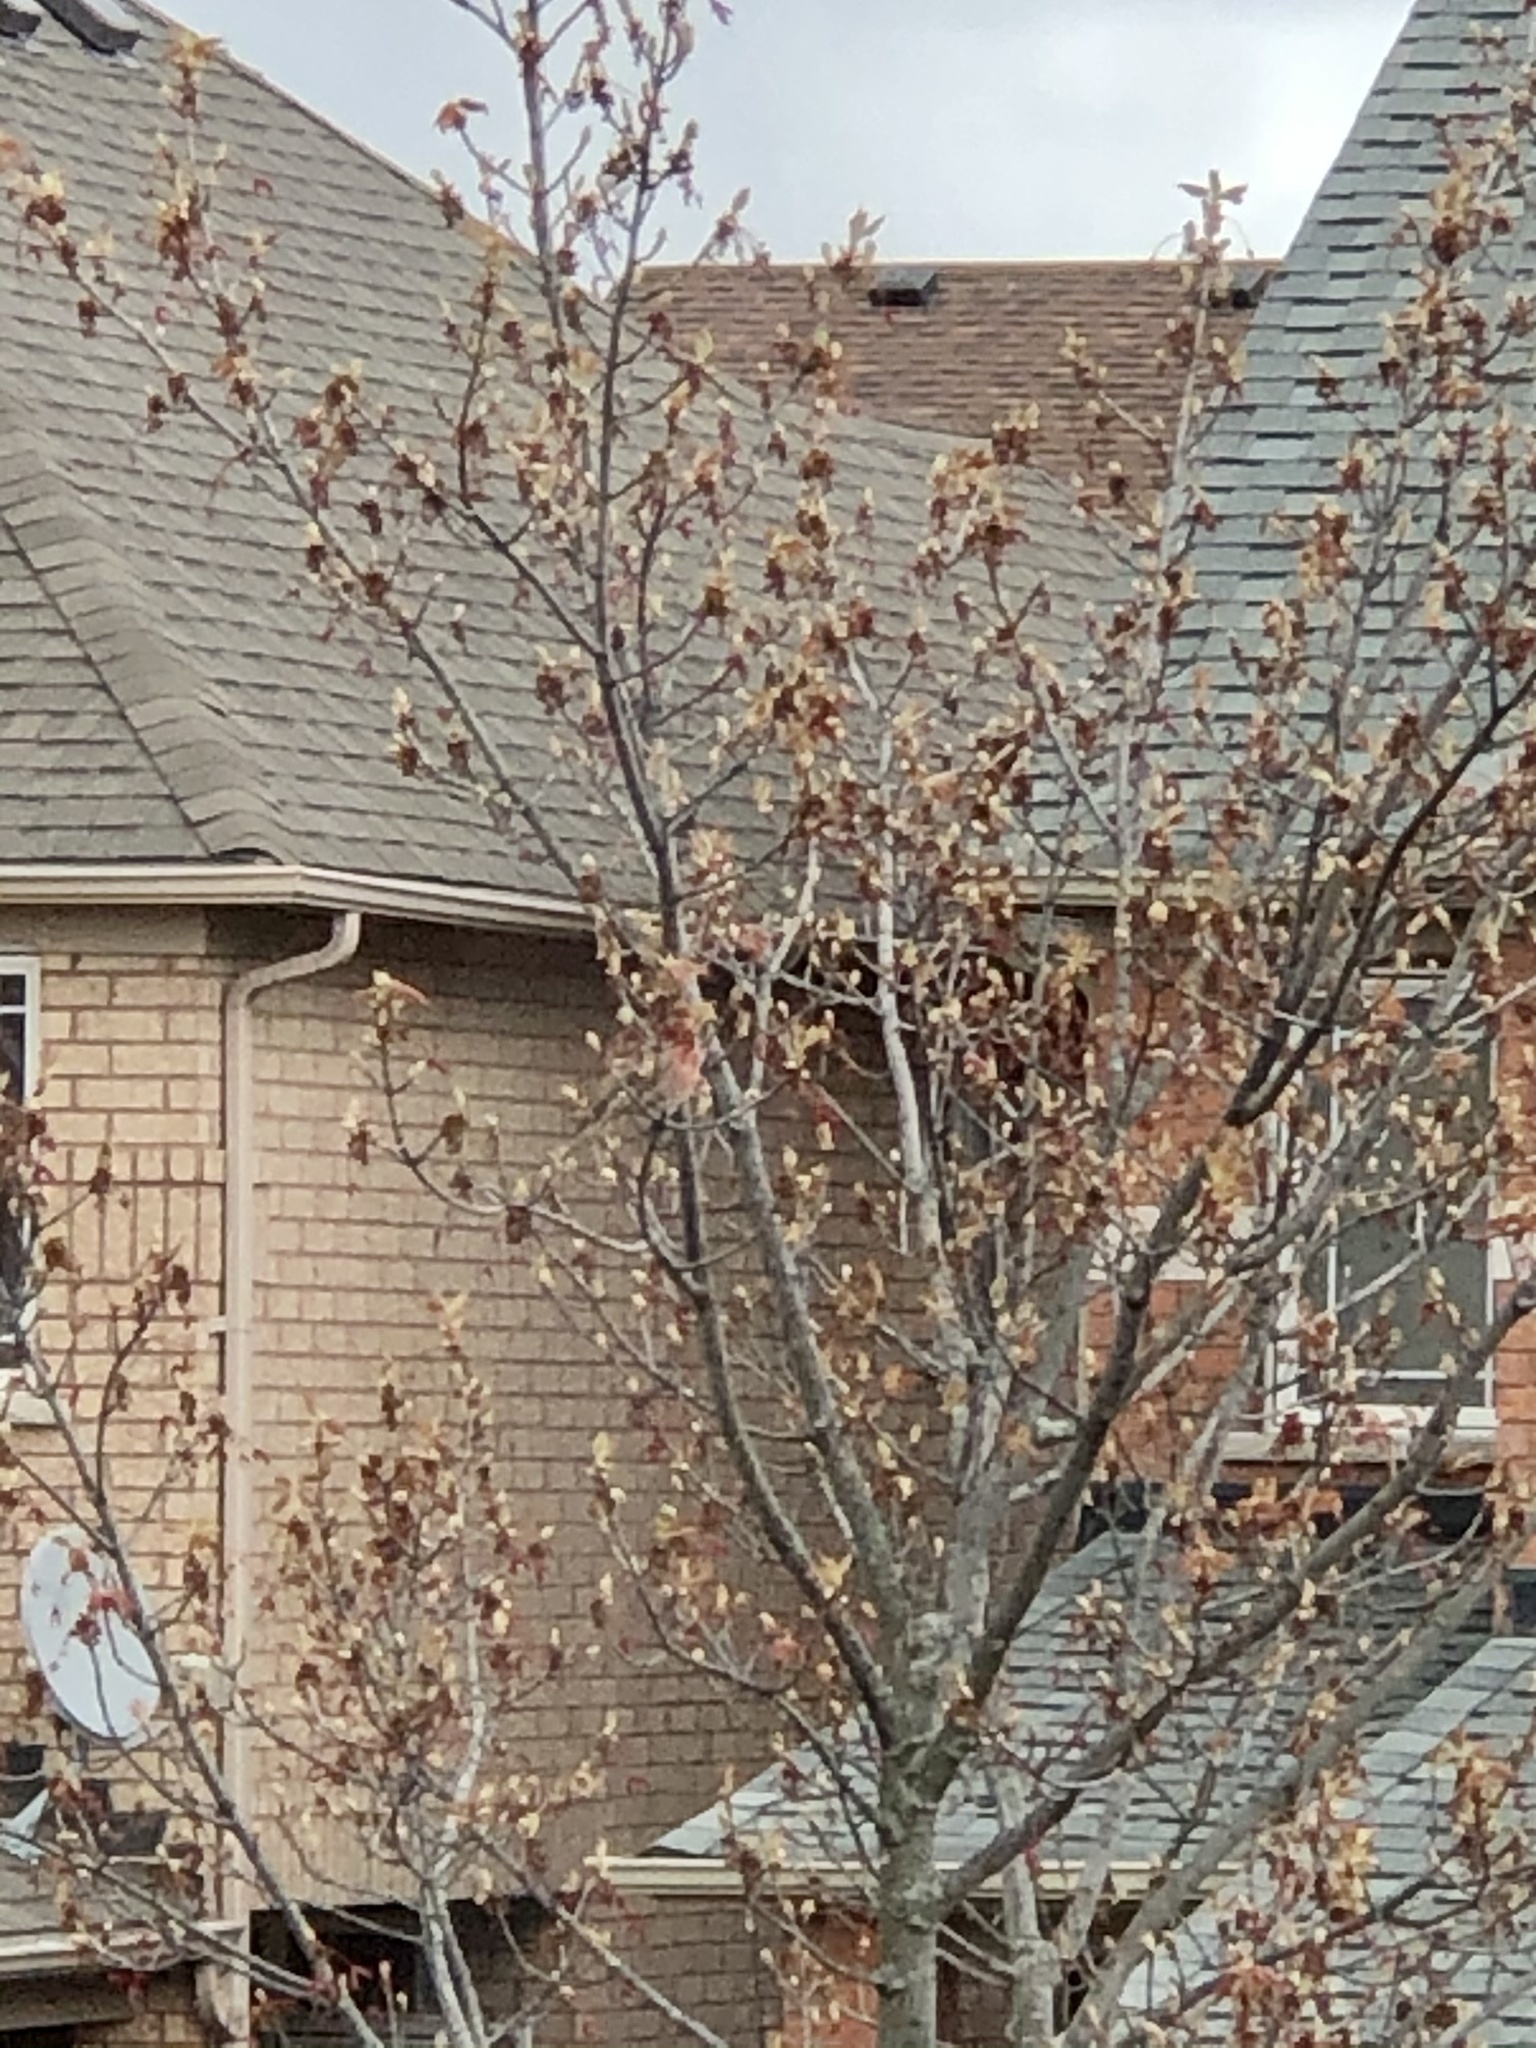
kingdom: Animalia
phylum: Chordata
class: Aves
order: Passeriformes
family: Fringillidae
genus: Haemorhous
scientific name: Haemorhous mexicanus
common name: House finch
